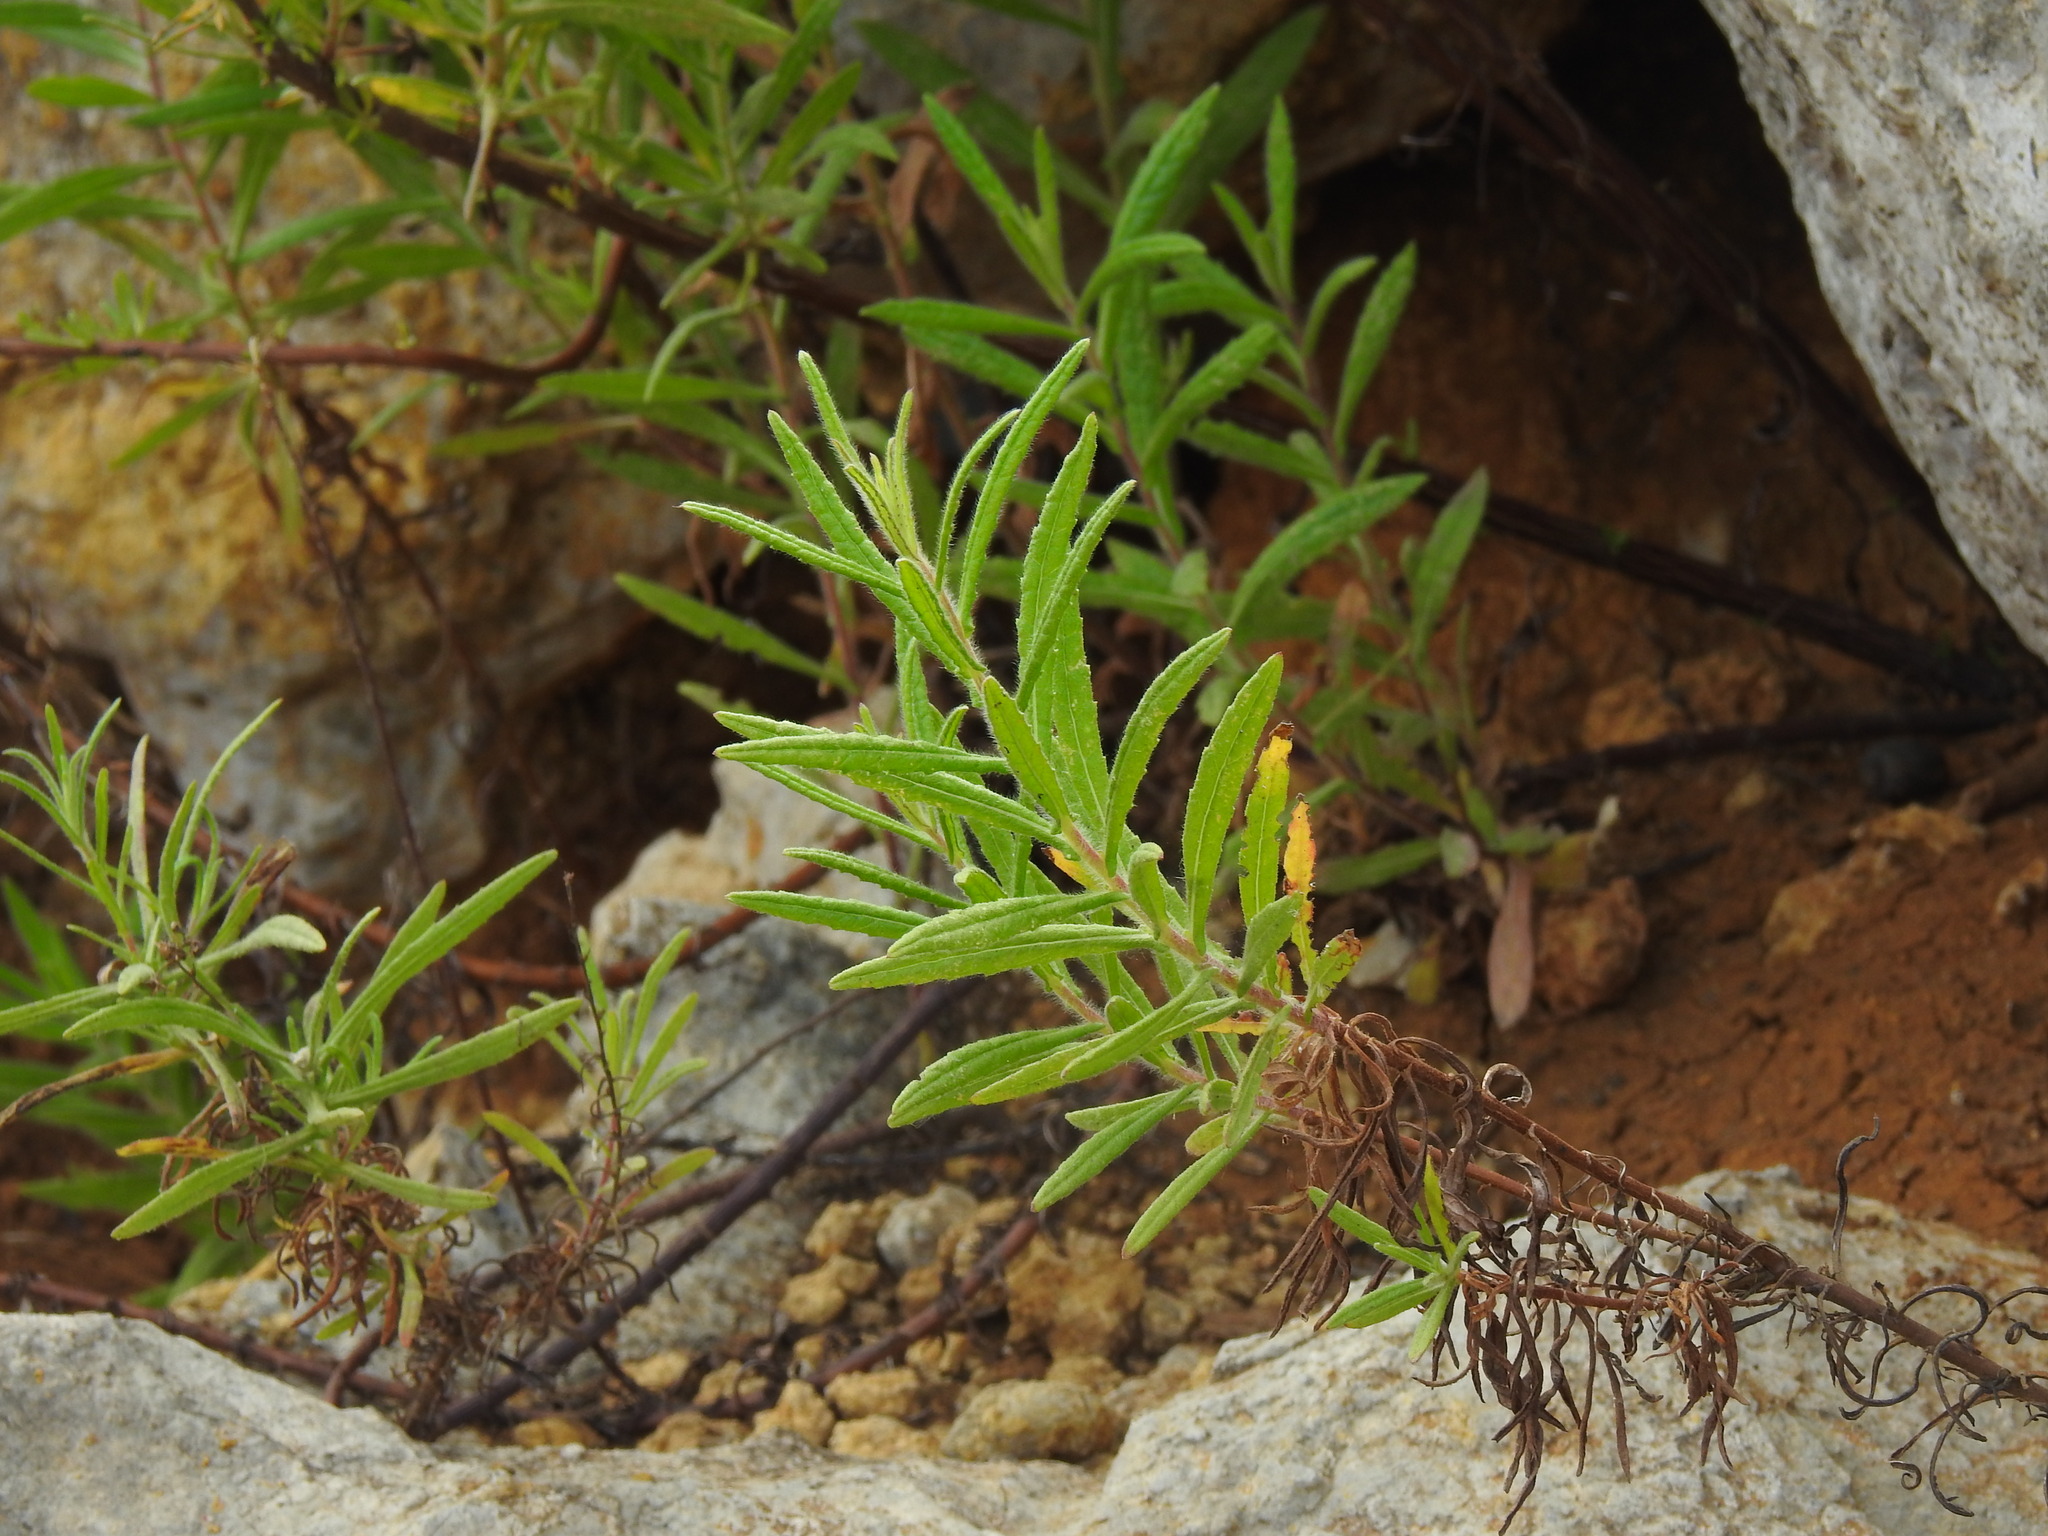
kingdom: Plantae
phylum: Tracheophyta
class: Magnoliopsida
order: Asterales
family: Asteraceae
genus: Dittrichia
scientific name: Dittrichia viscosa
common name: Woody fleabane
